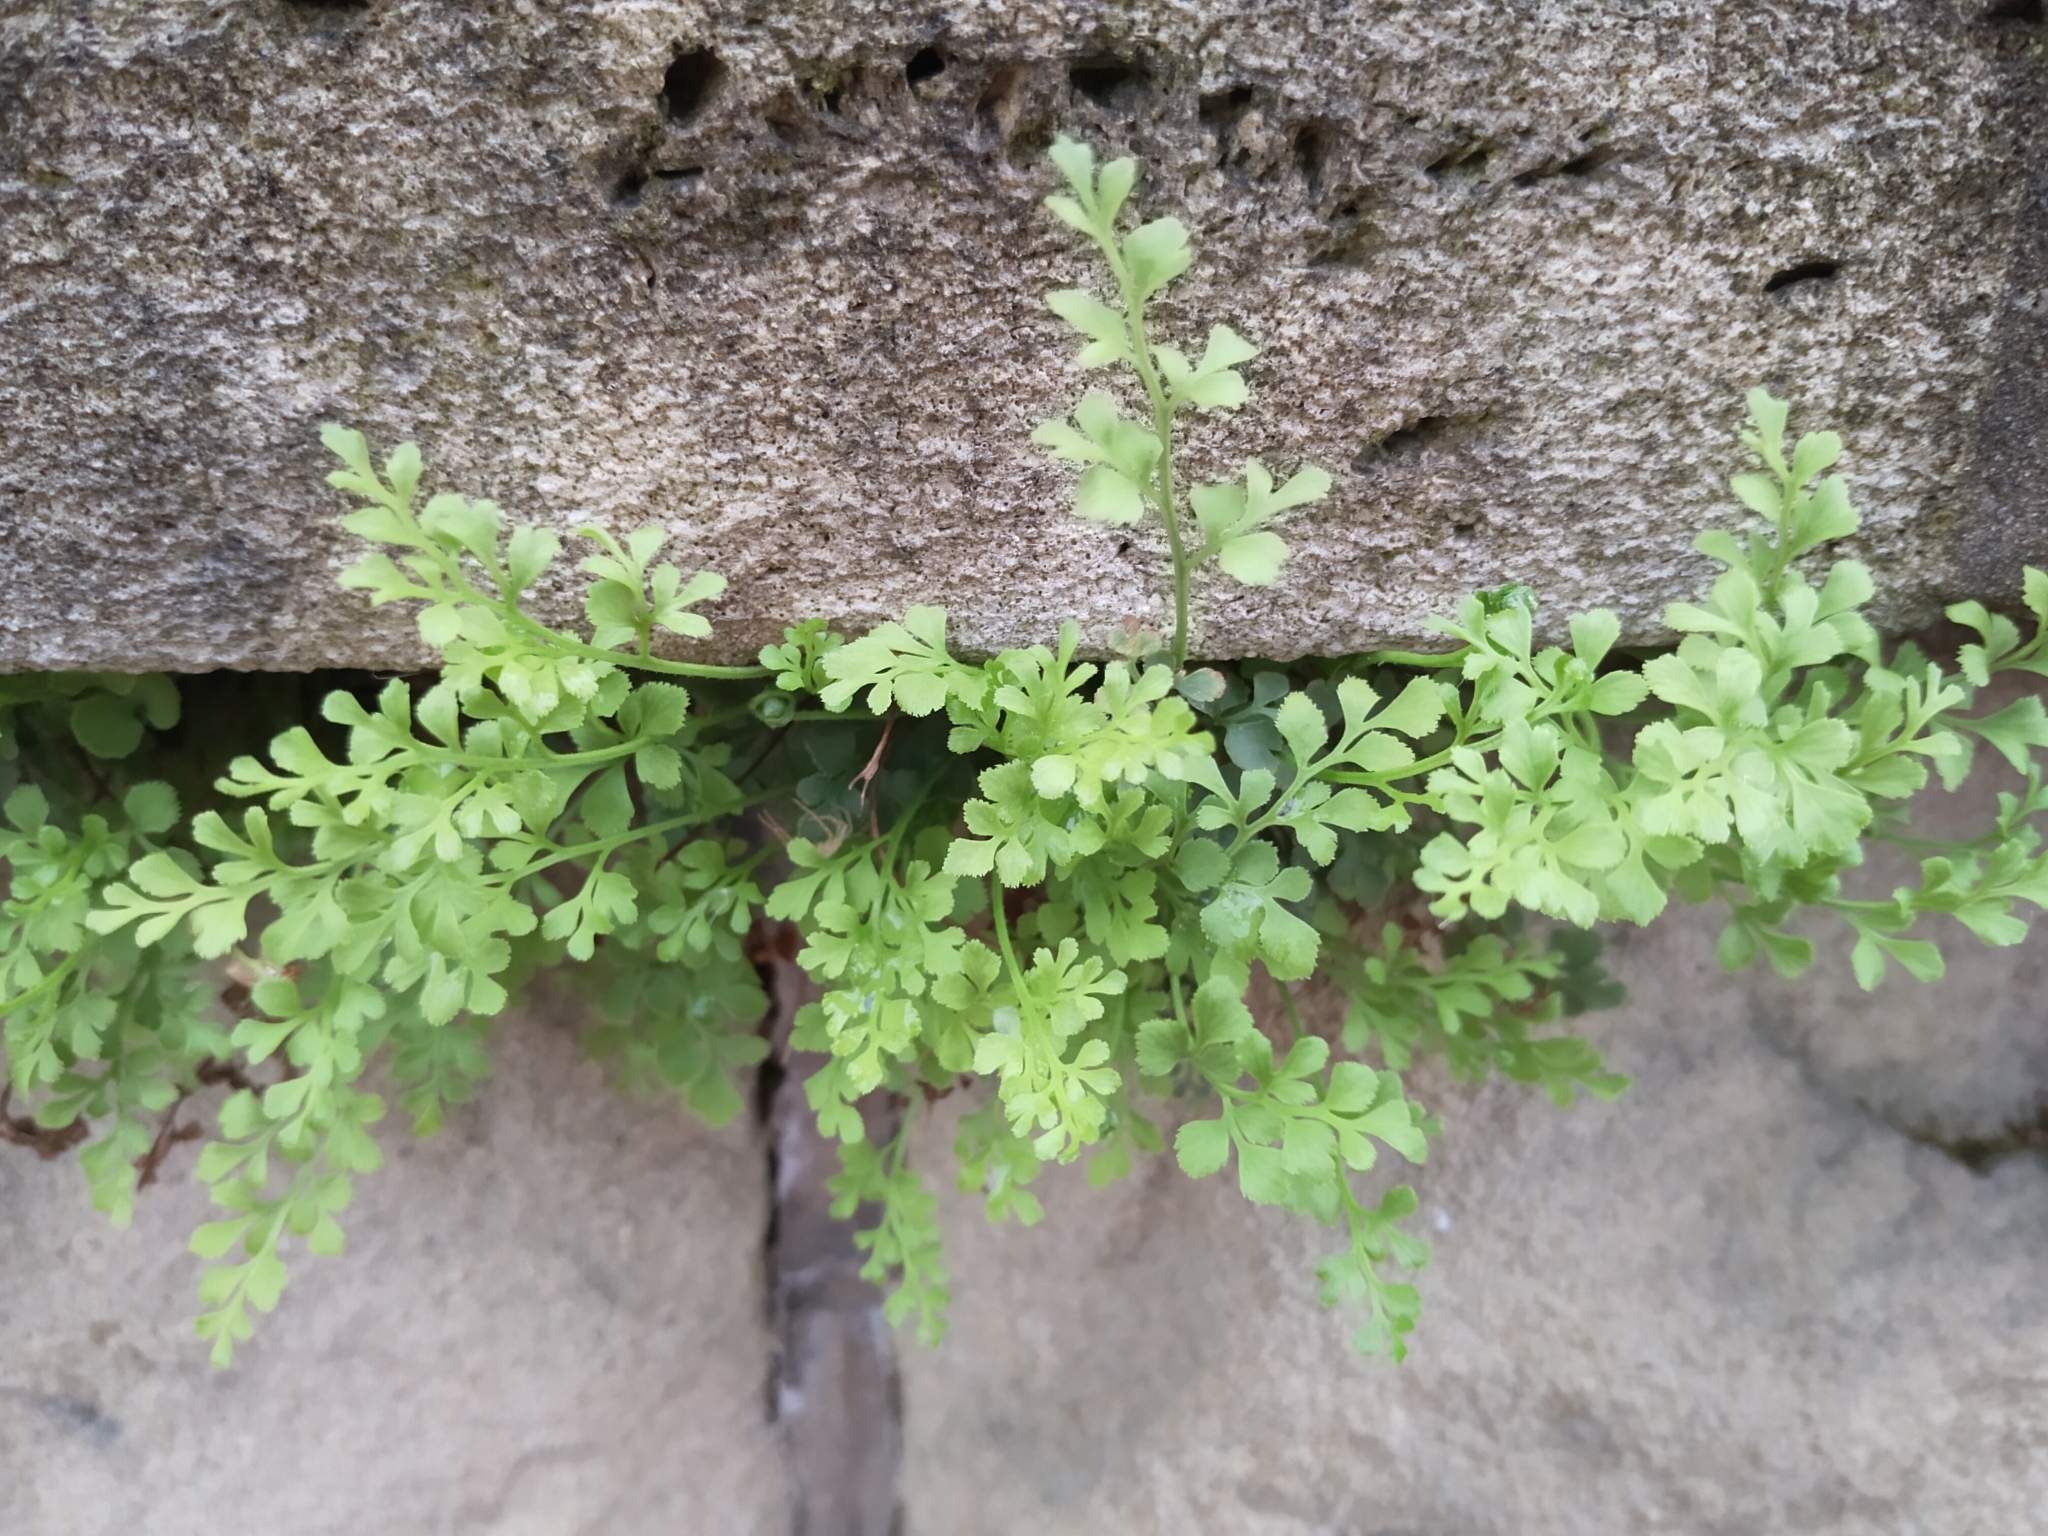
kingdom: Plantae
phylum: Tracheophyta
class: Polypodiopsida
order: Polypodiales
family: Aspleniaceae
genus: Asplenium
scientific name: Asplenium ruta-muraria
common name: Wall-rue
